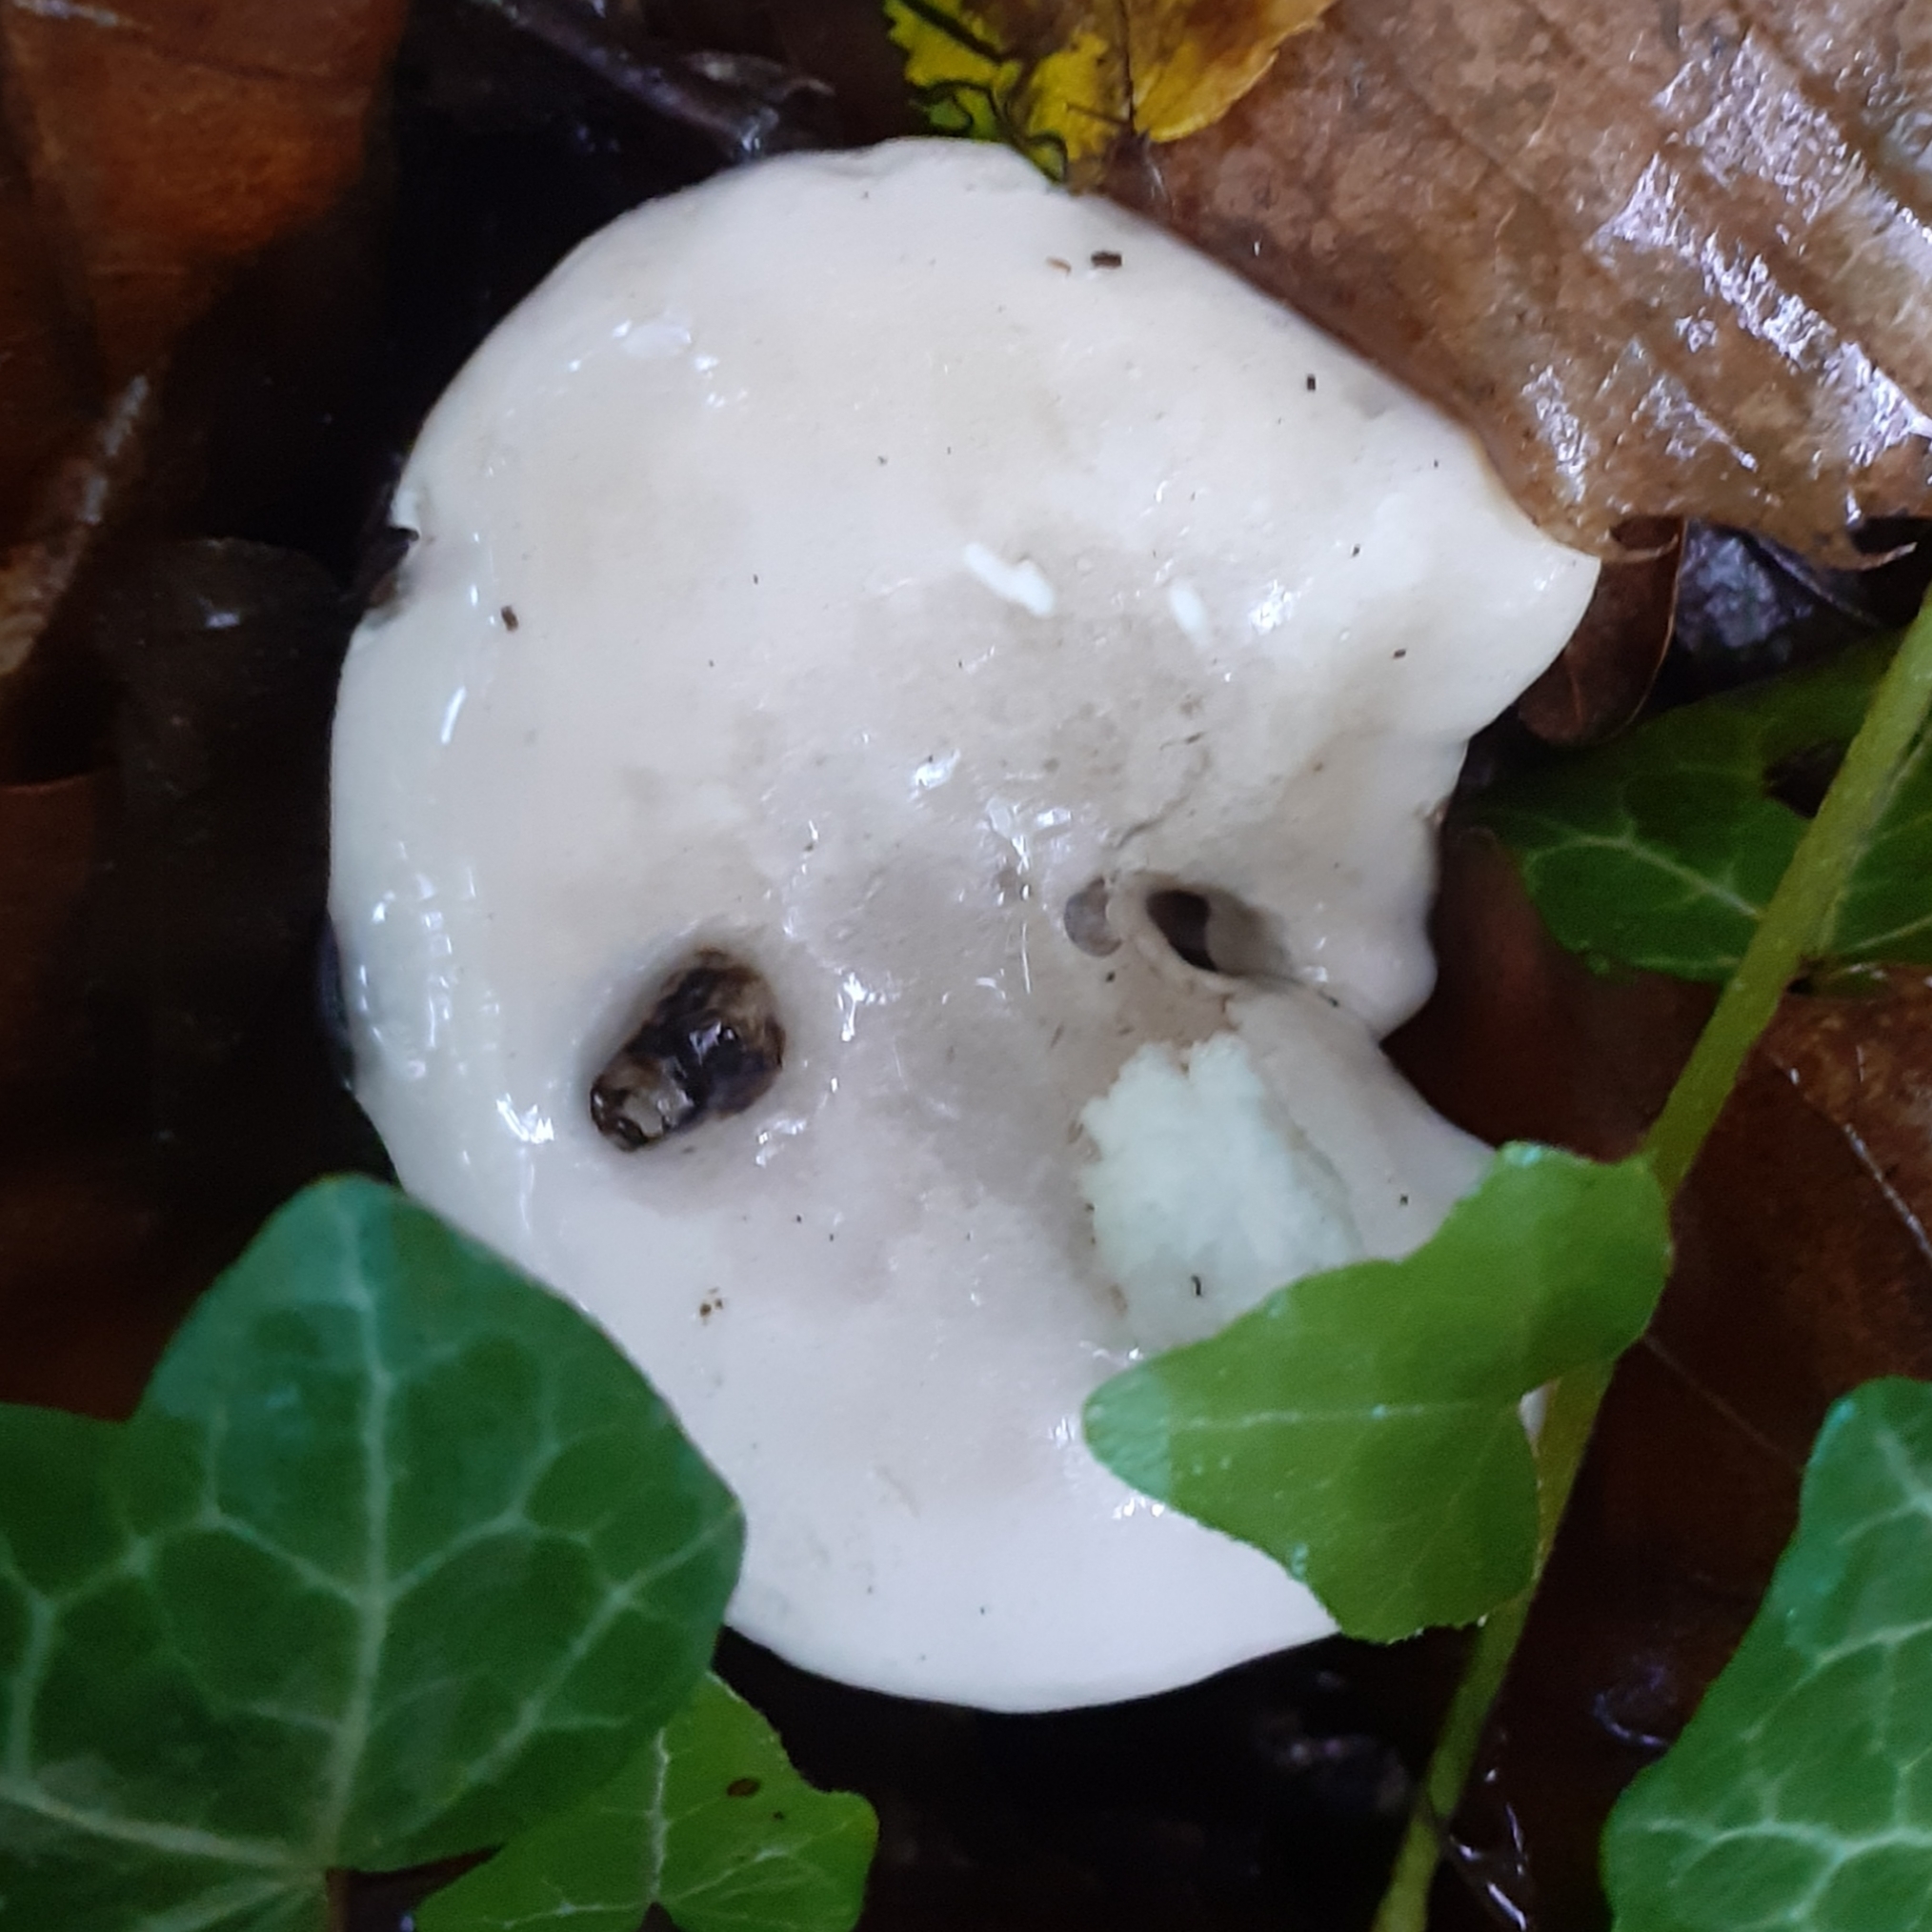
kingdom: Fungi
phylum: Basidiomycota
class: Agaricomycetes
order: Agaricales
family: Entolomataceae
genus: Clitopilus
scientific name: Clitopilus prunulus
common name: The miller
